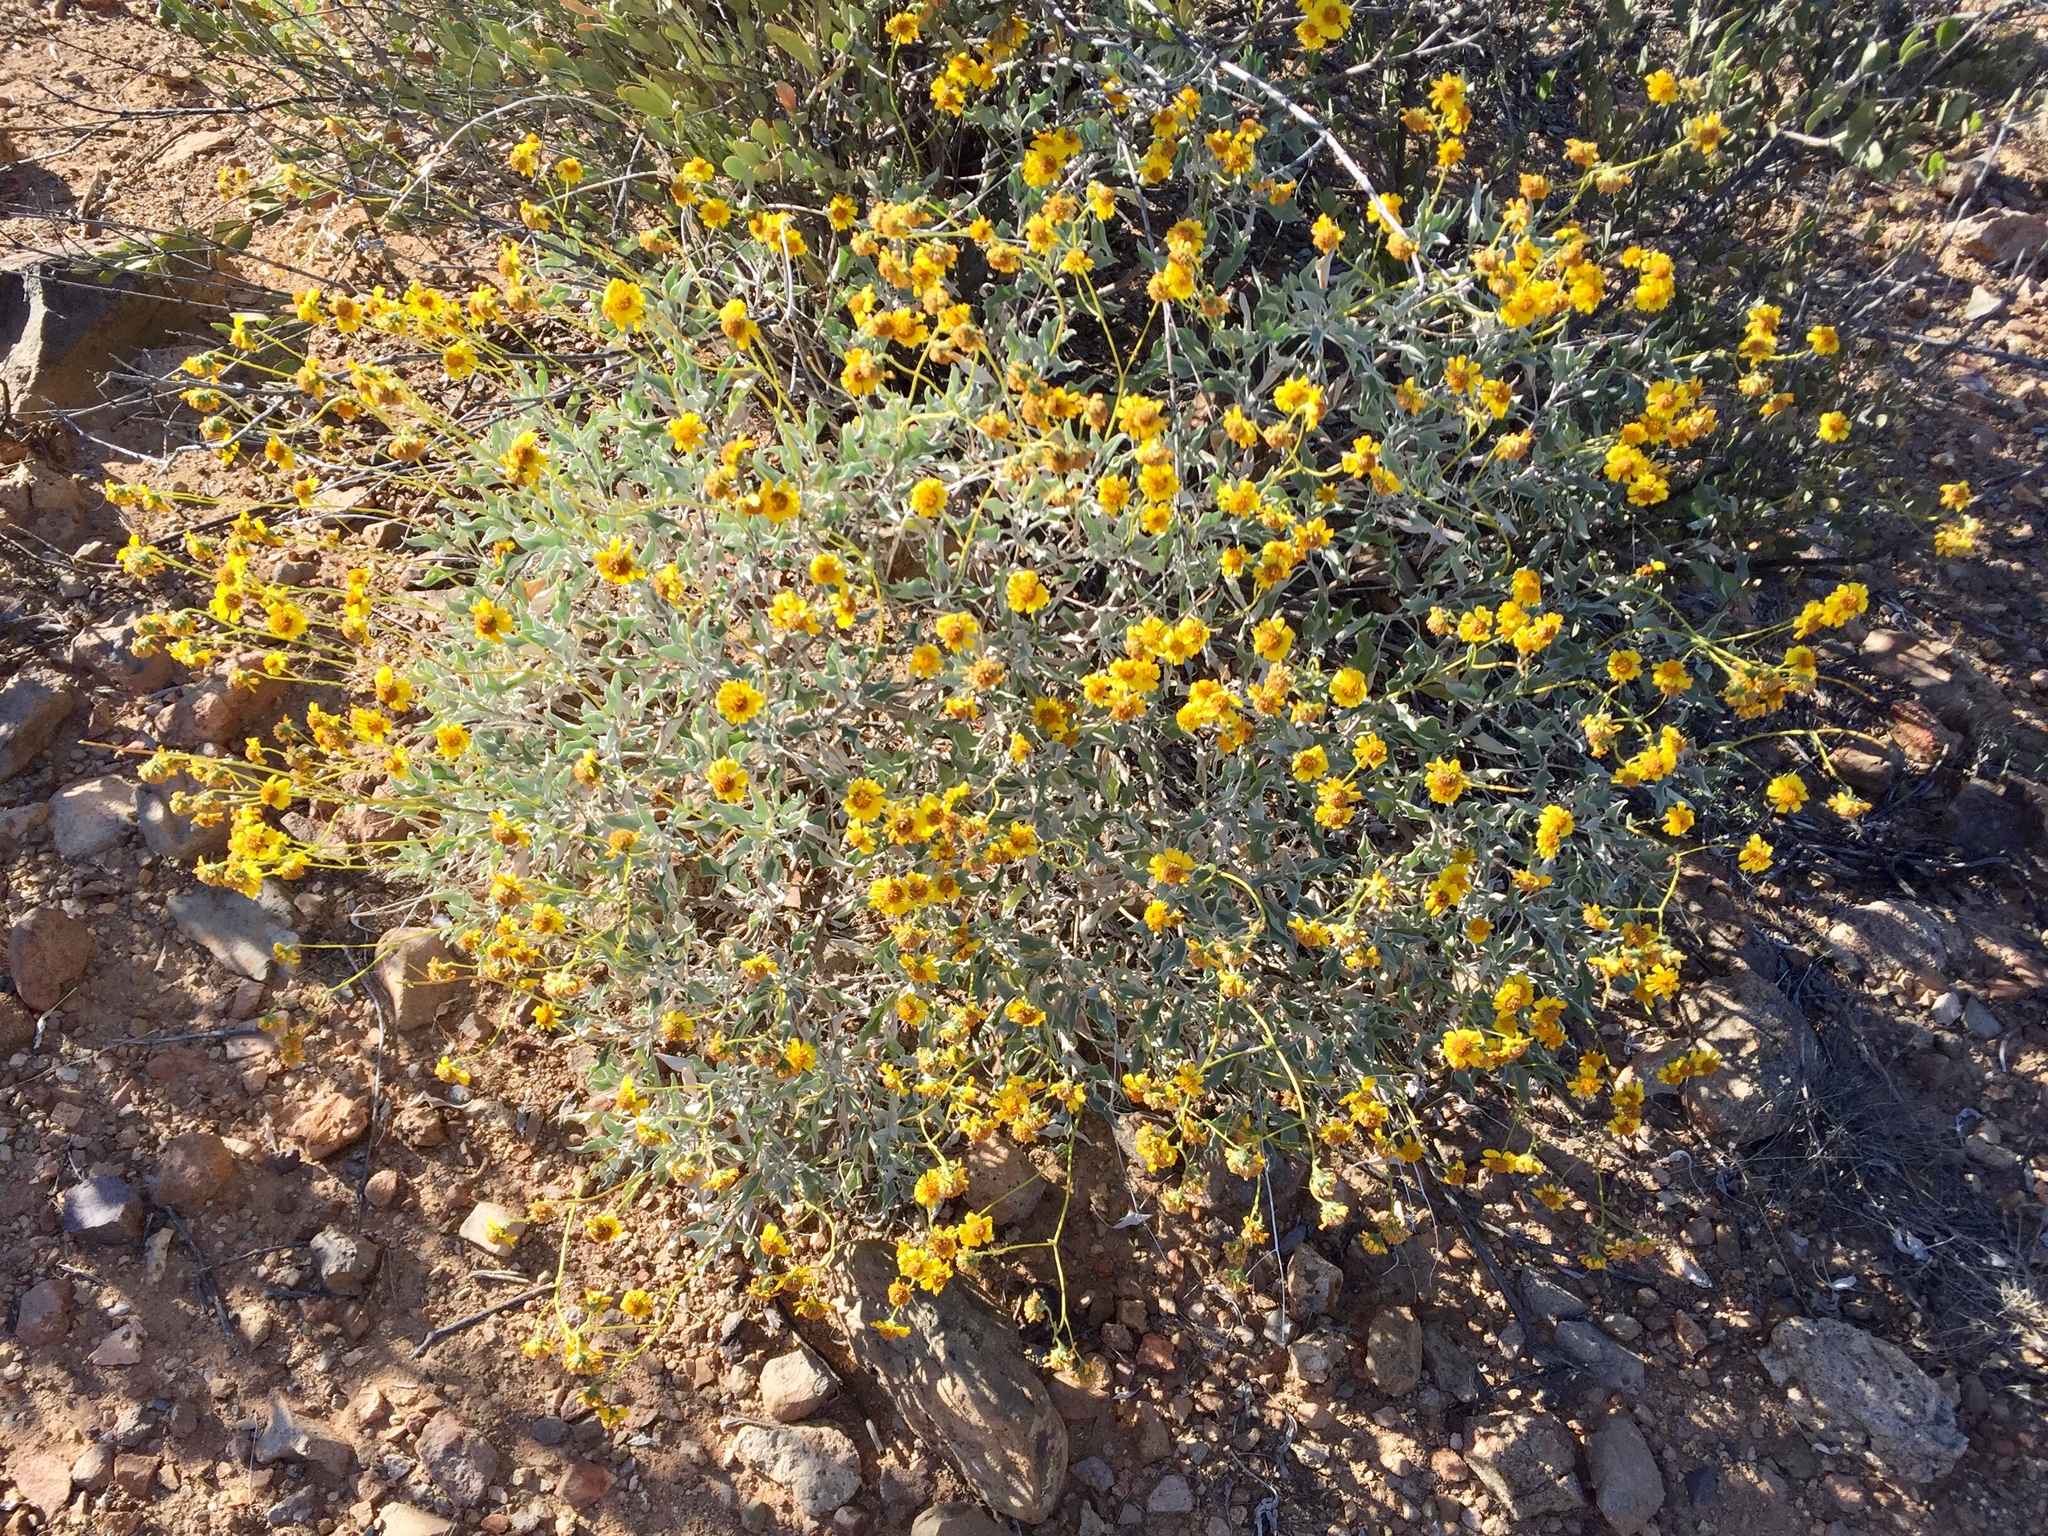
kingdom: Plantae
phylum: Tracheophyta
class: Magnoliopsida
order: Asterales
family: Asteraceae
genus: Encelia
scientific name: Encelia farinosa
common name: Brittlebush
